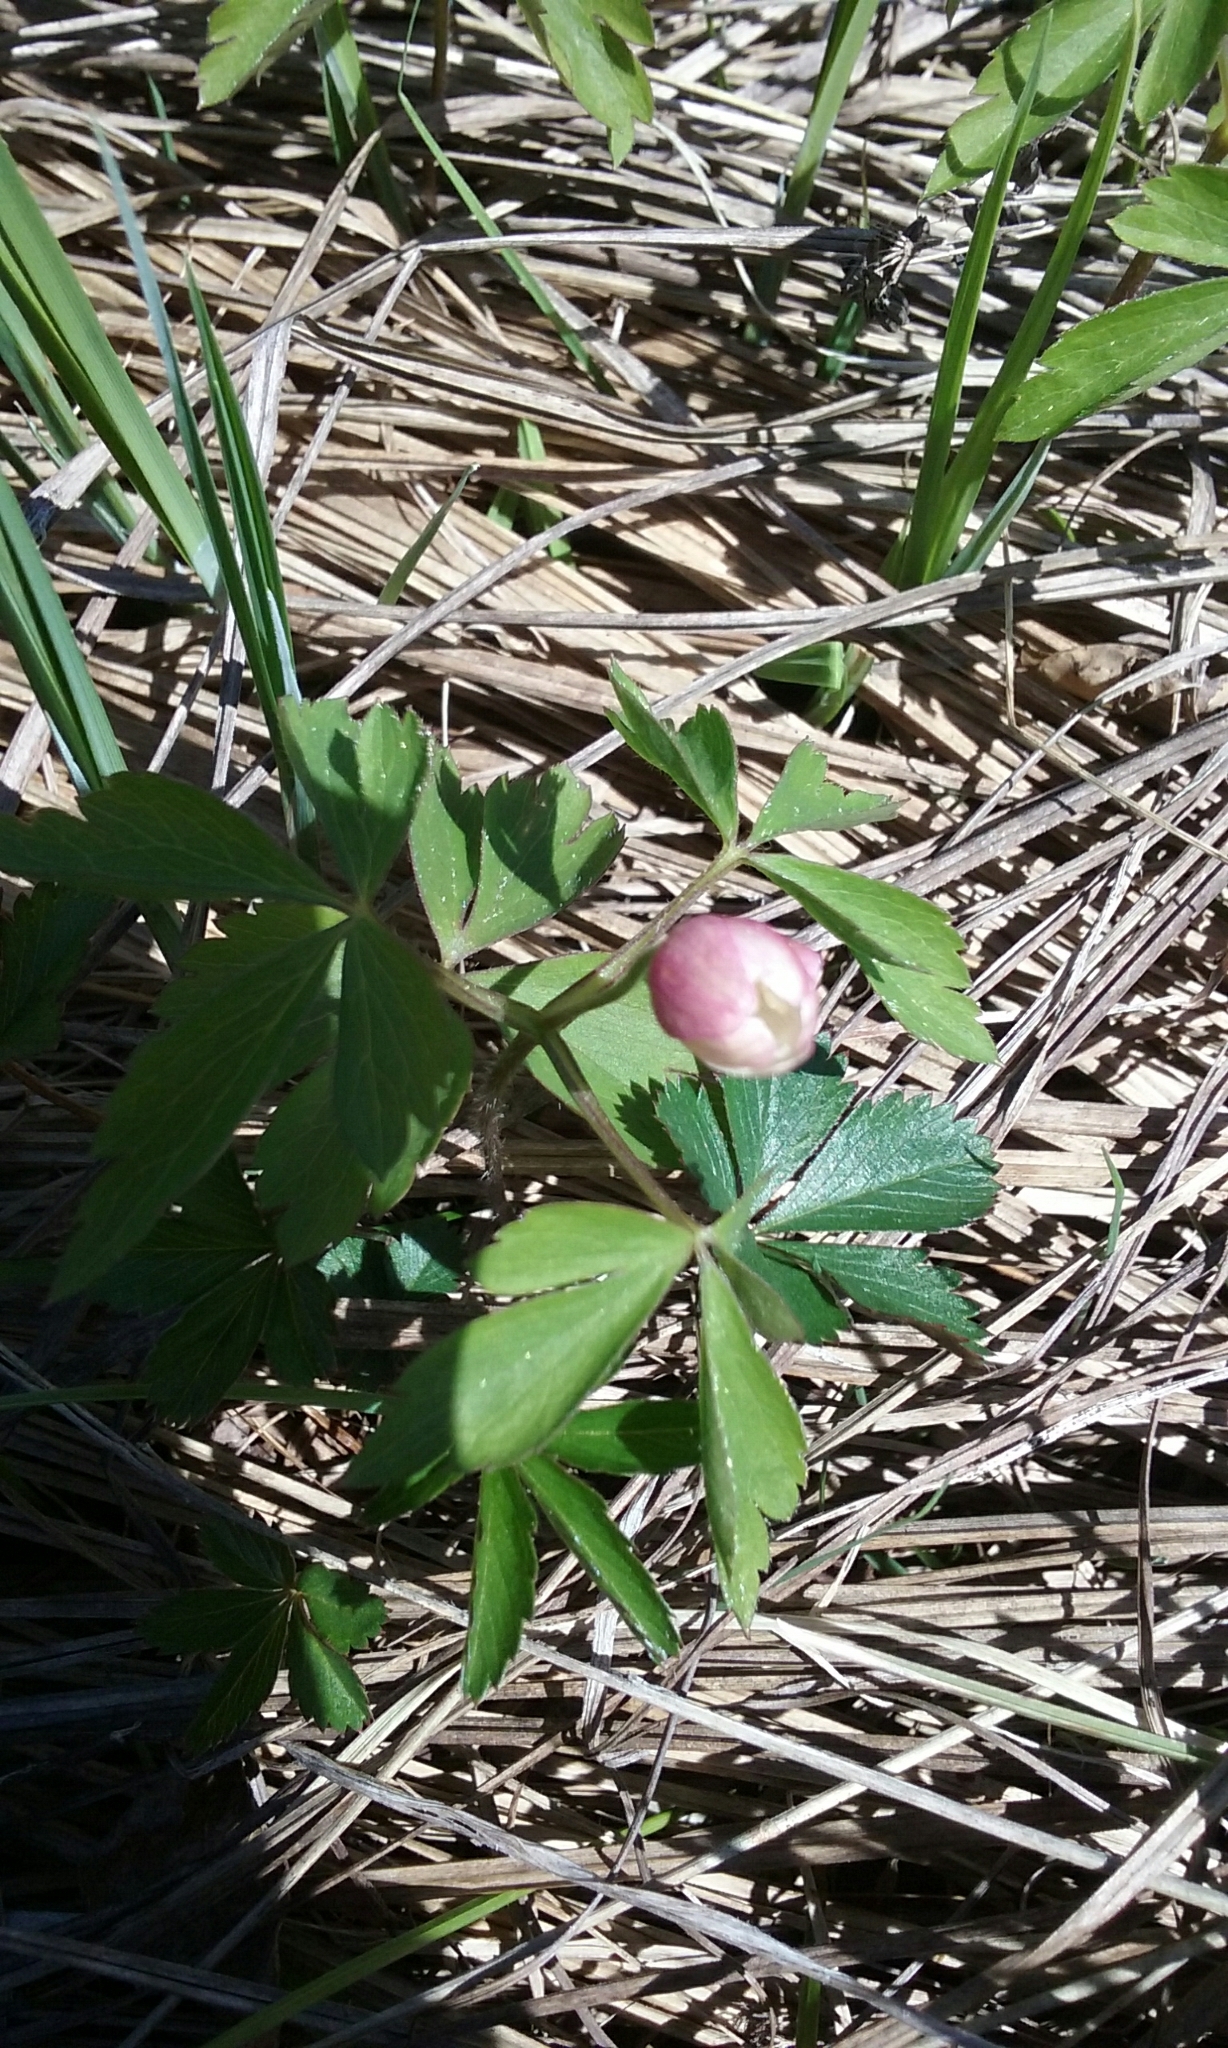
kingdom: Plantae
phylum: Tracheophyta
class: Magnoliopsida
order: Ranunculales
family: Ranunculaceae
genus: Anemone
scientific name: Anemone quinquefolia
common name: Wood anemone
